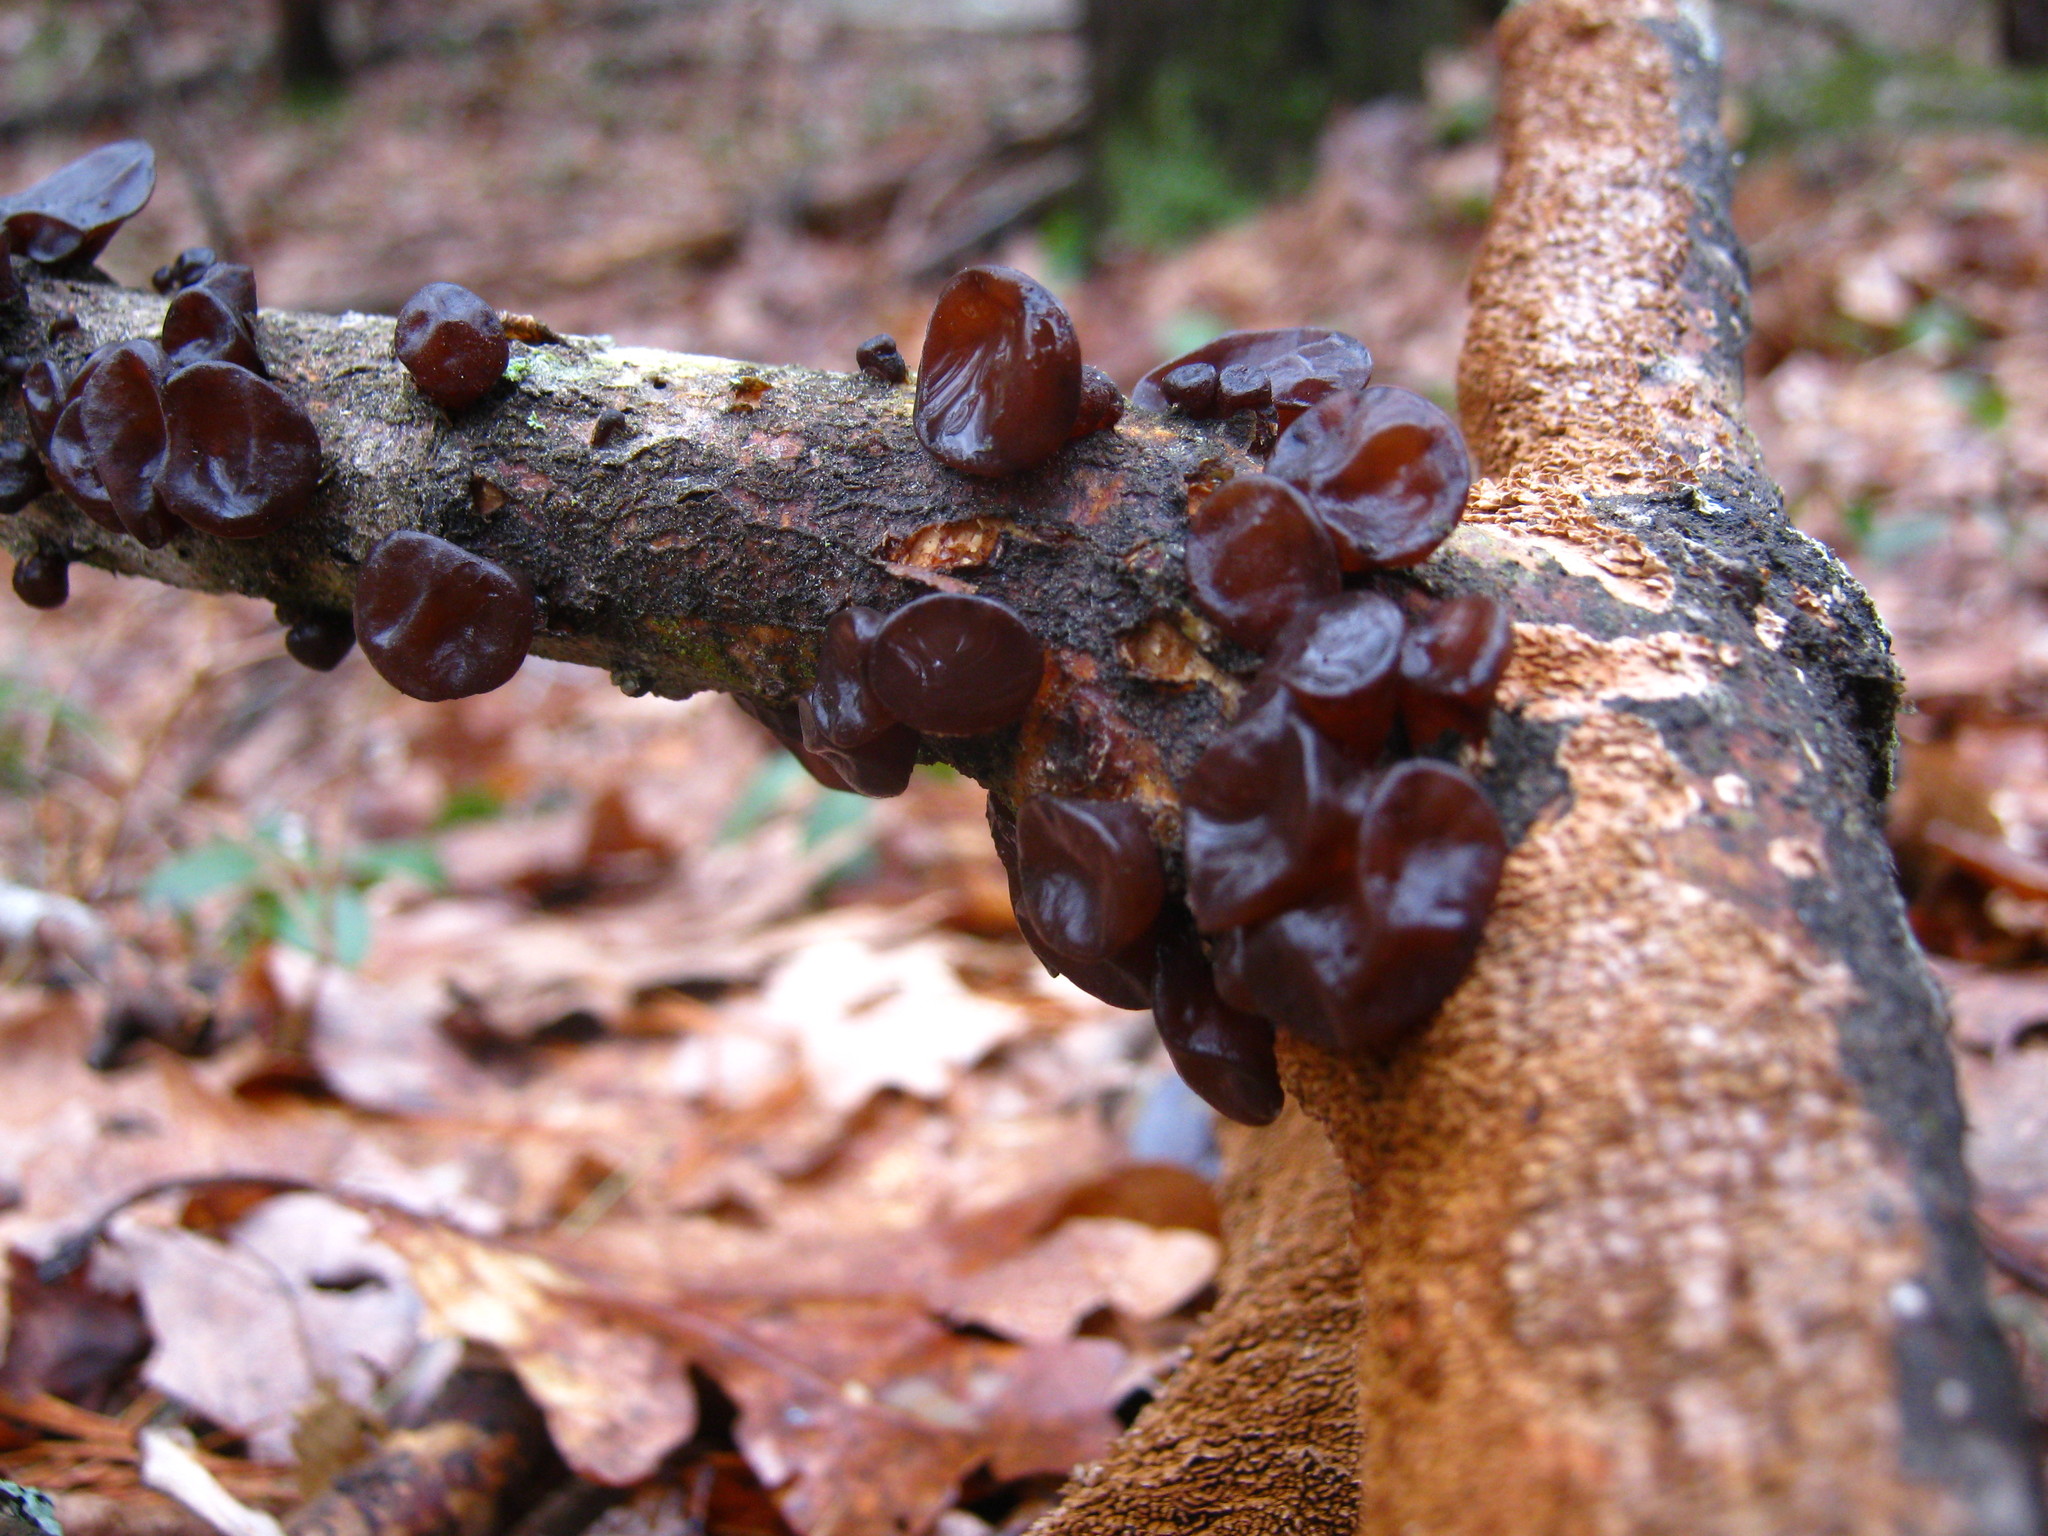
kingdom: Fungi
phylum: Basidiomycota
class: Agaricomycetes
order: Auriculariales
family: Auriculariaceae
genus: Exidia
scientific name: Exidia
